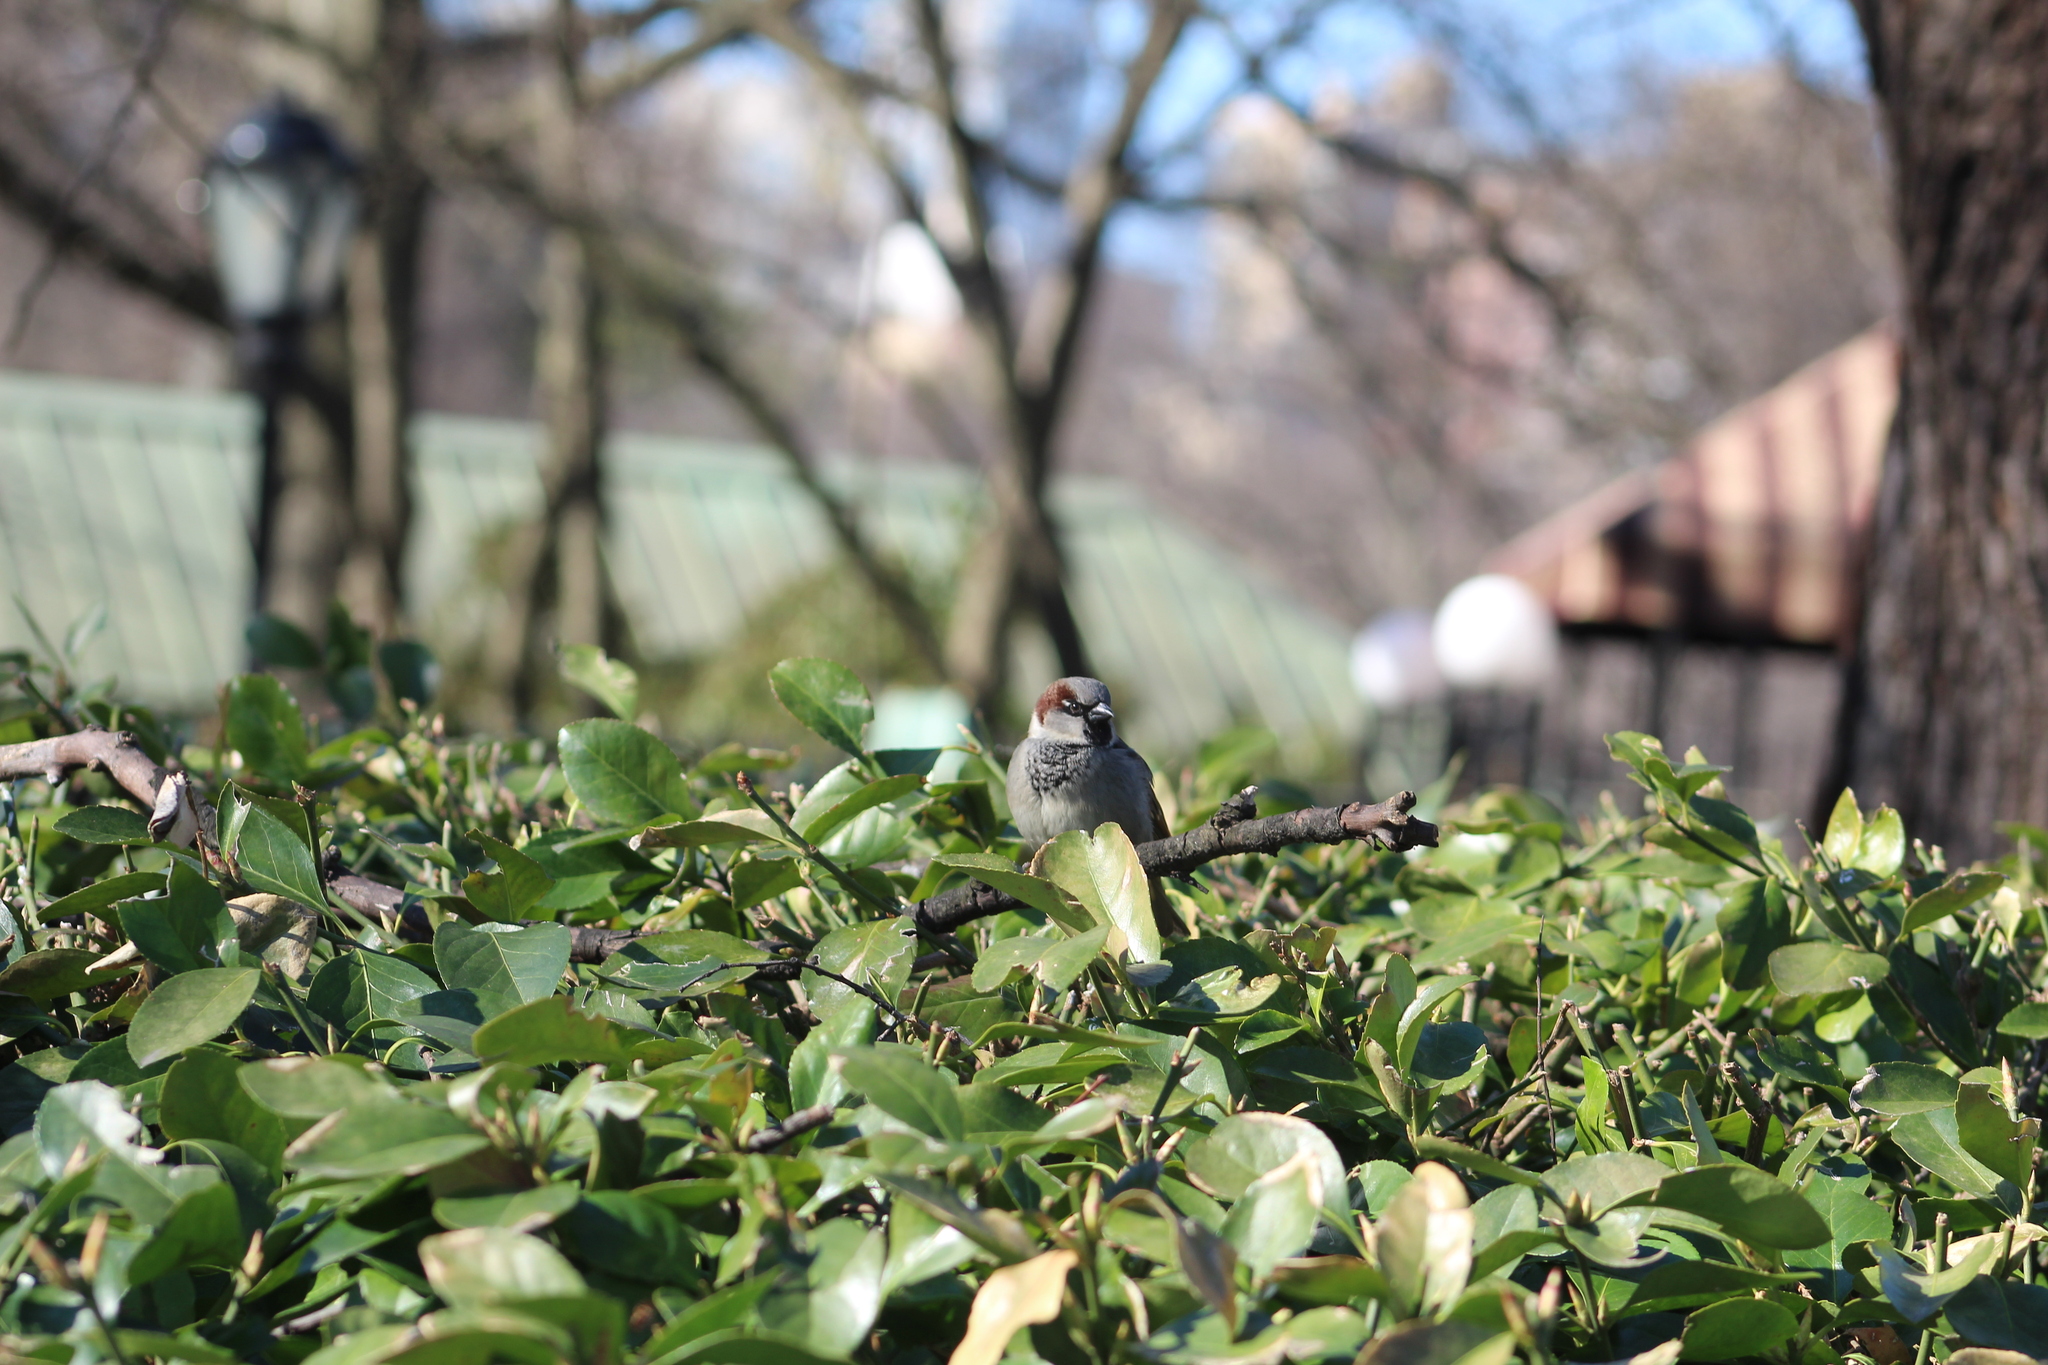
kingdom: Animalia
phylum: Chordata
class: Aves
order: Passeriformes
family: Passeridae
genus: Passer
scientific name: Passer domesticus
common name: House sparrow
